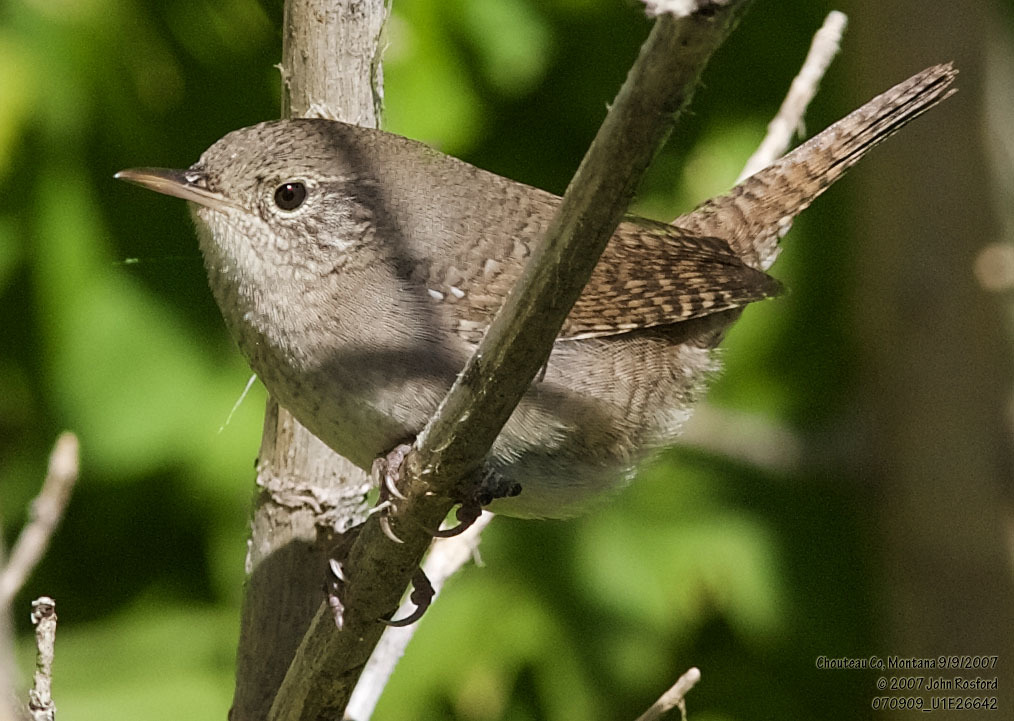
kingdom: Animalia
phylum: Chordata
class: Aves
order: Passeriformes
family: Troglodytidae
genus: Troglodytes
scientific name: Troglodytes aedon
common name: House wren
